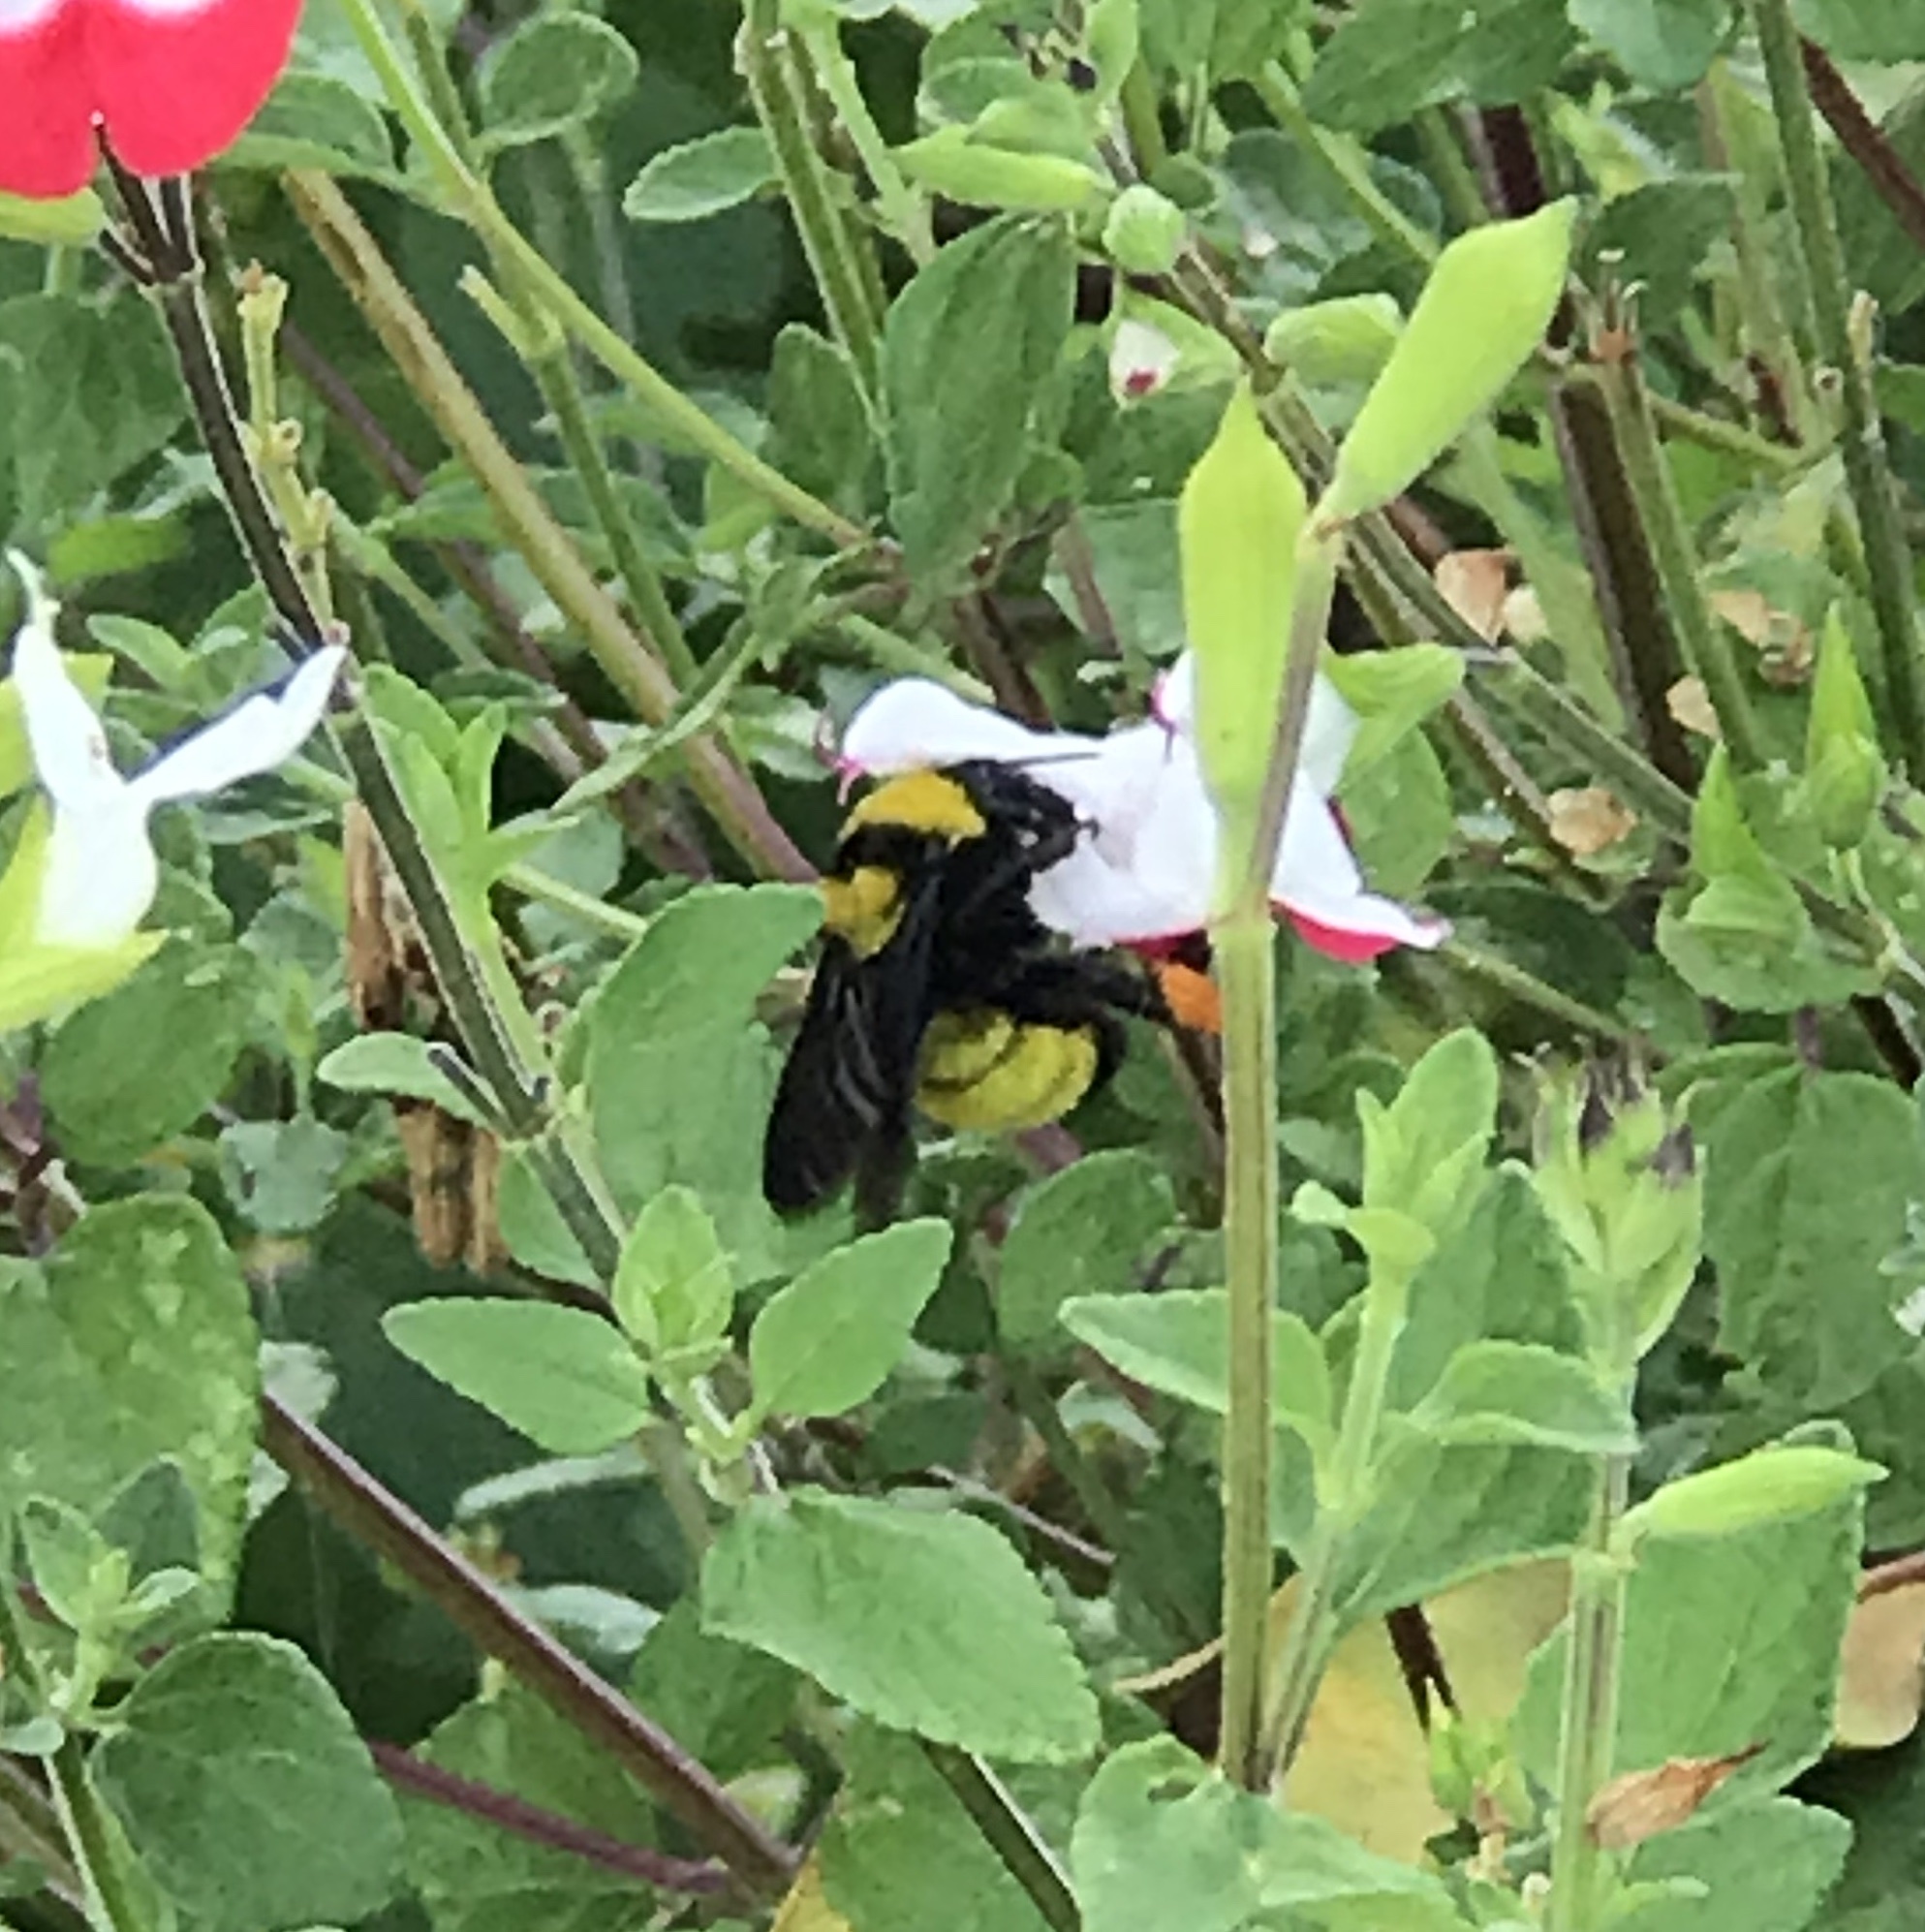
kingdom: Animalia
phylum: Arthropoda
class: Insecta
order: Hymenoptera
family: Apidae
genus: Bombus
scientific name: Bombus sonorus
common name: Sonoran bumble bee
